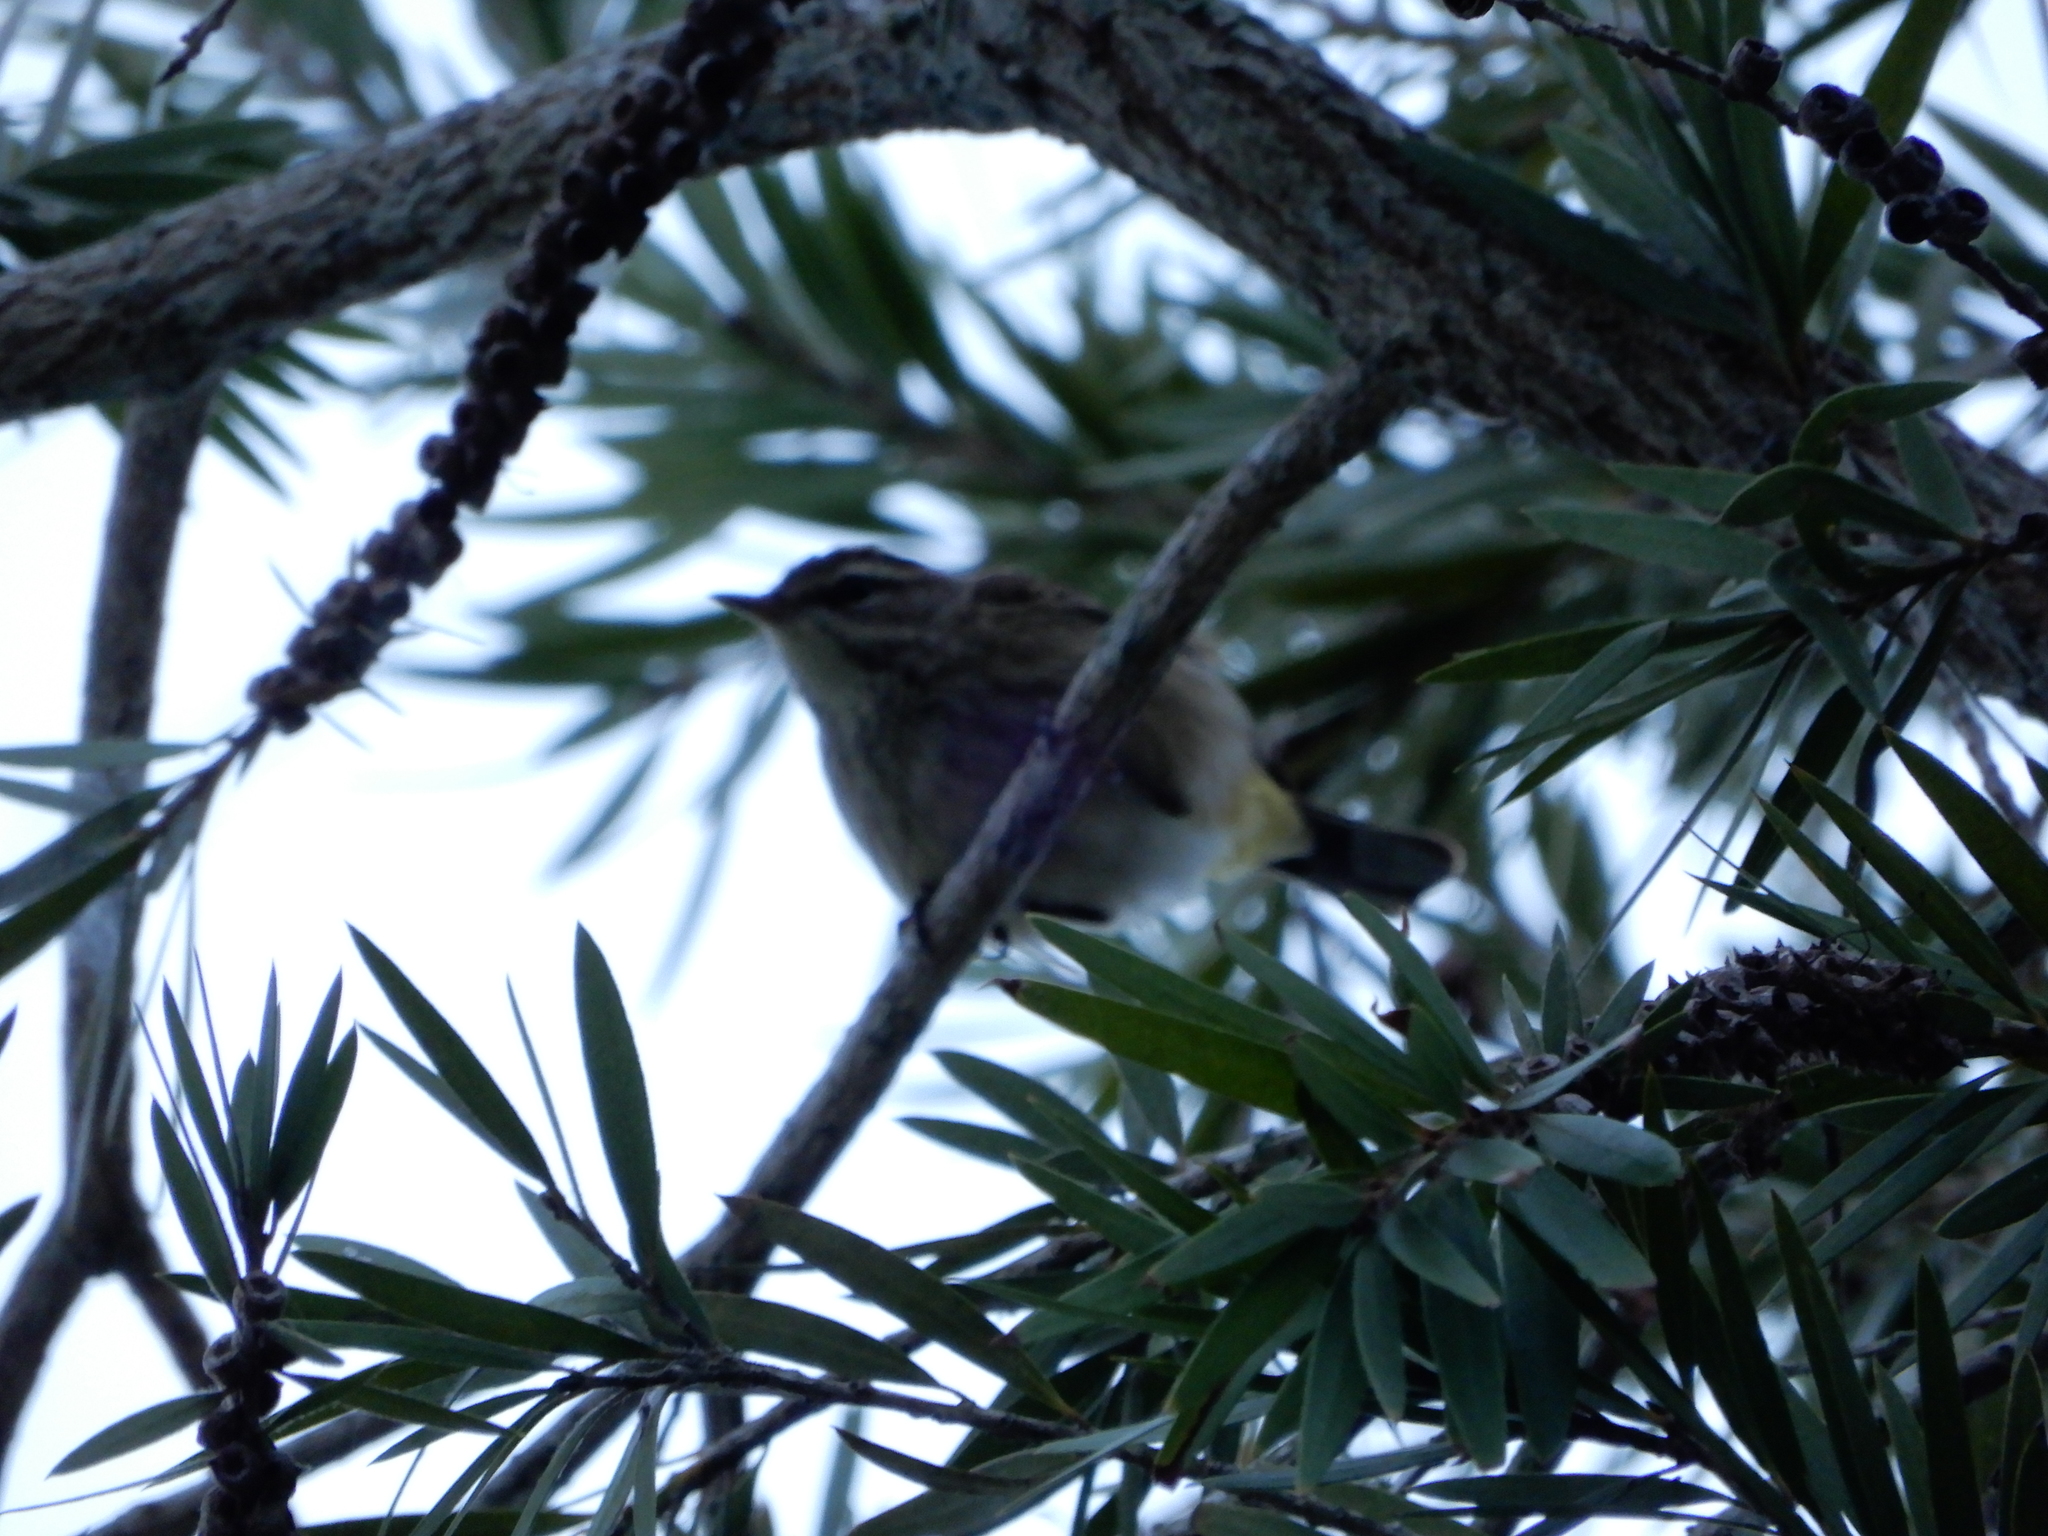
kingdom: Animalia
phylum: Chordata
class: Aves
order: Passeriformes
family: Parulidae
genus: Setophaga
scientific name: Setophaga palmarum
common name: Palm warbler
